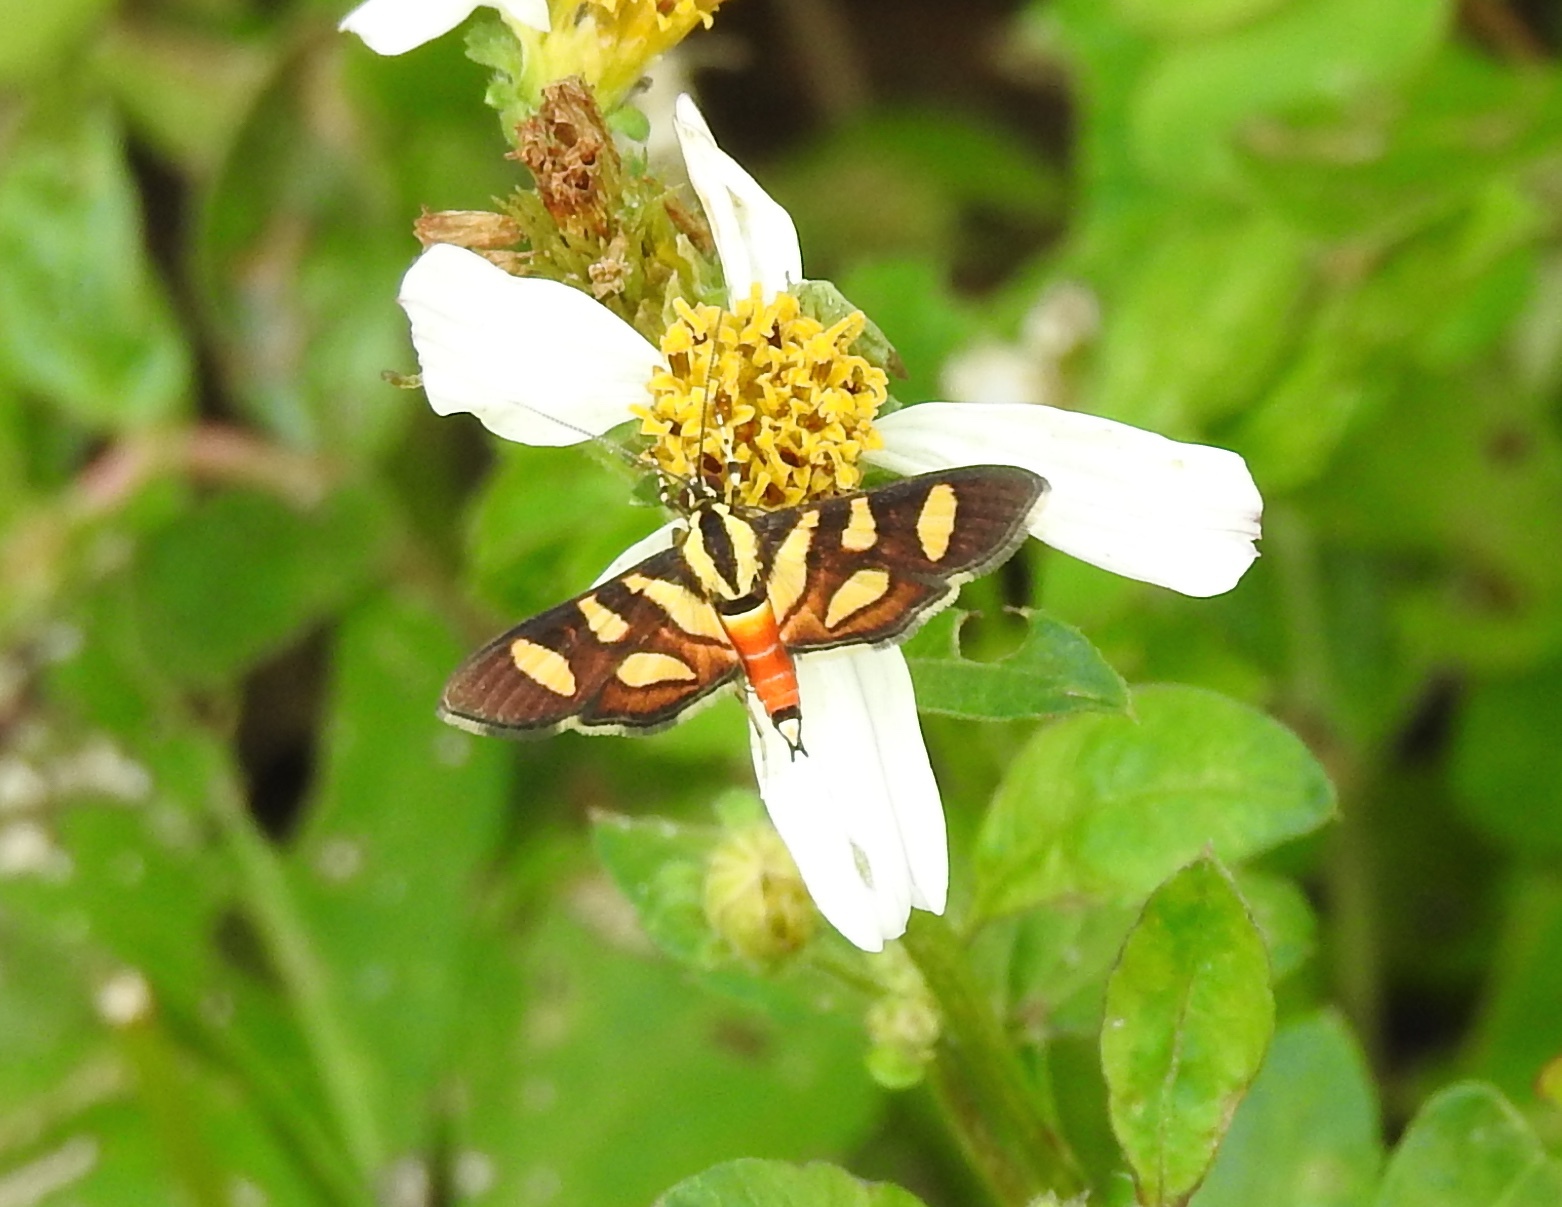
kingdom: Animalia
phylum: Arthropoda
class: Insecta
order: Lepidoptera
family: Crambidae
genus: Syngamia
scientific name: Syngamia florella
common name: Orange-spotted flower moth
